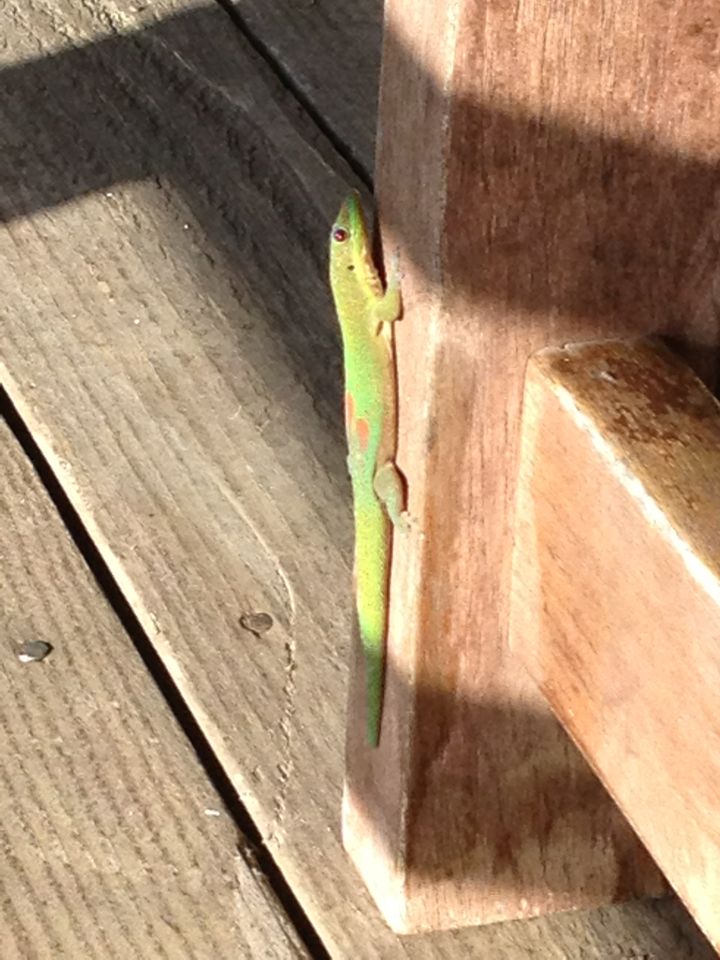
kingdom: Animalia
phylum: Chordata
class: Squamata
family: Gekkonidae
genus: Phelsuma
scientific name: Phelsuma laticauda
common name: Gold dust day gecko
